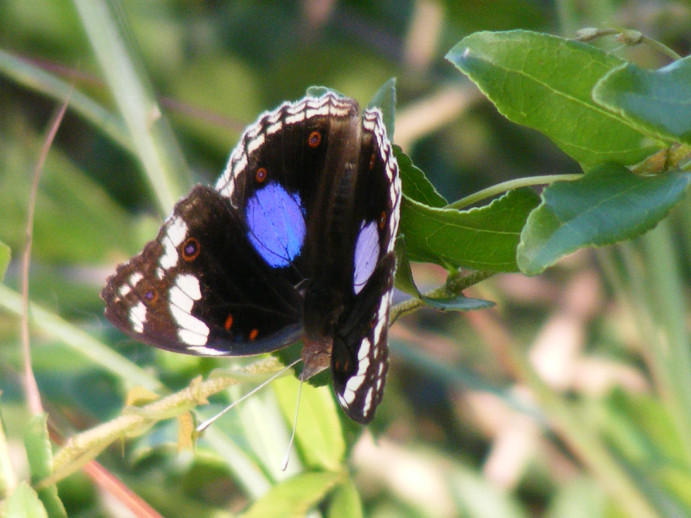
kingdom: Animalia
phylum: Arthropoda
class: Insecta
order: Lepidoptera
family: Nymphalidae
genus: Junonia
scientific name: Junonia oenone
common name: Dark blue pansy
